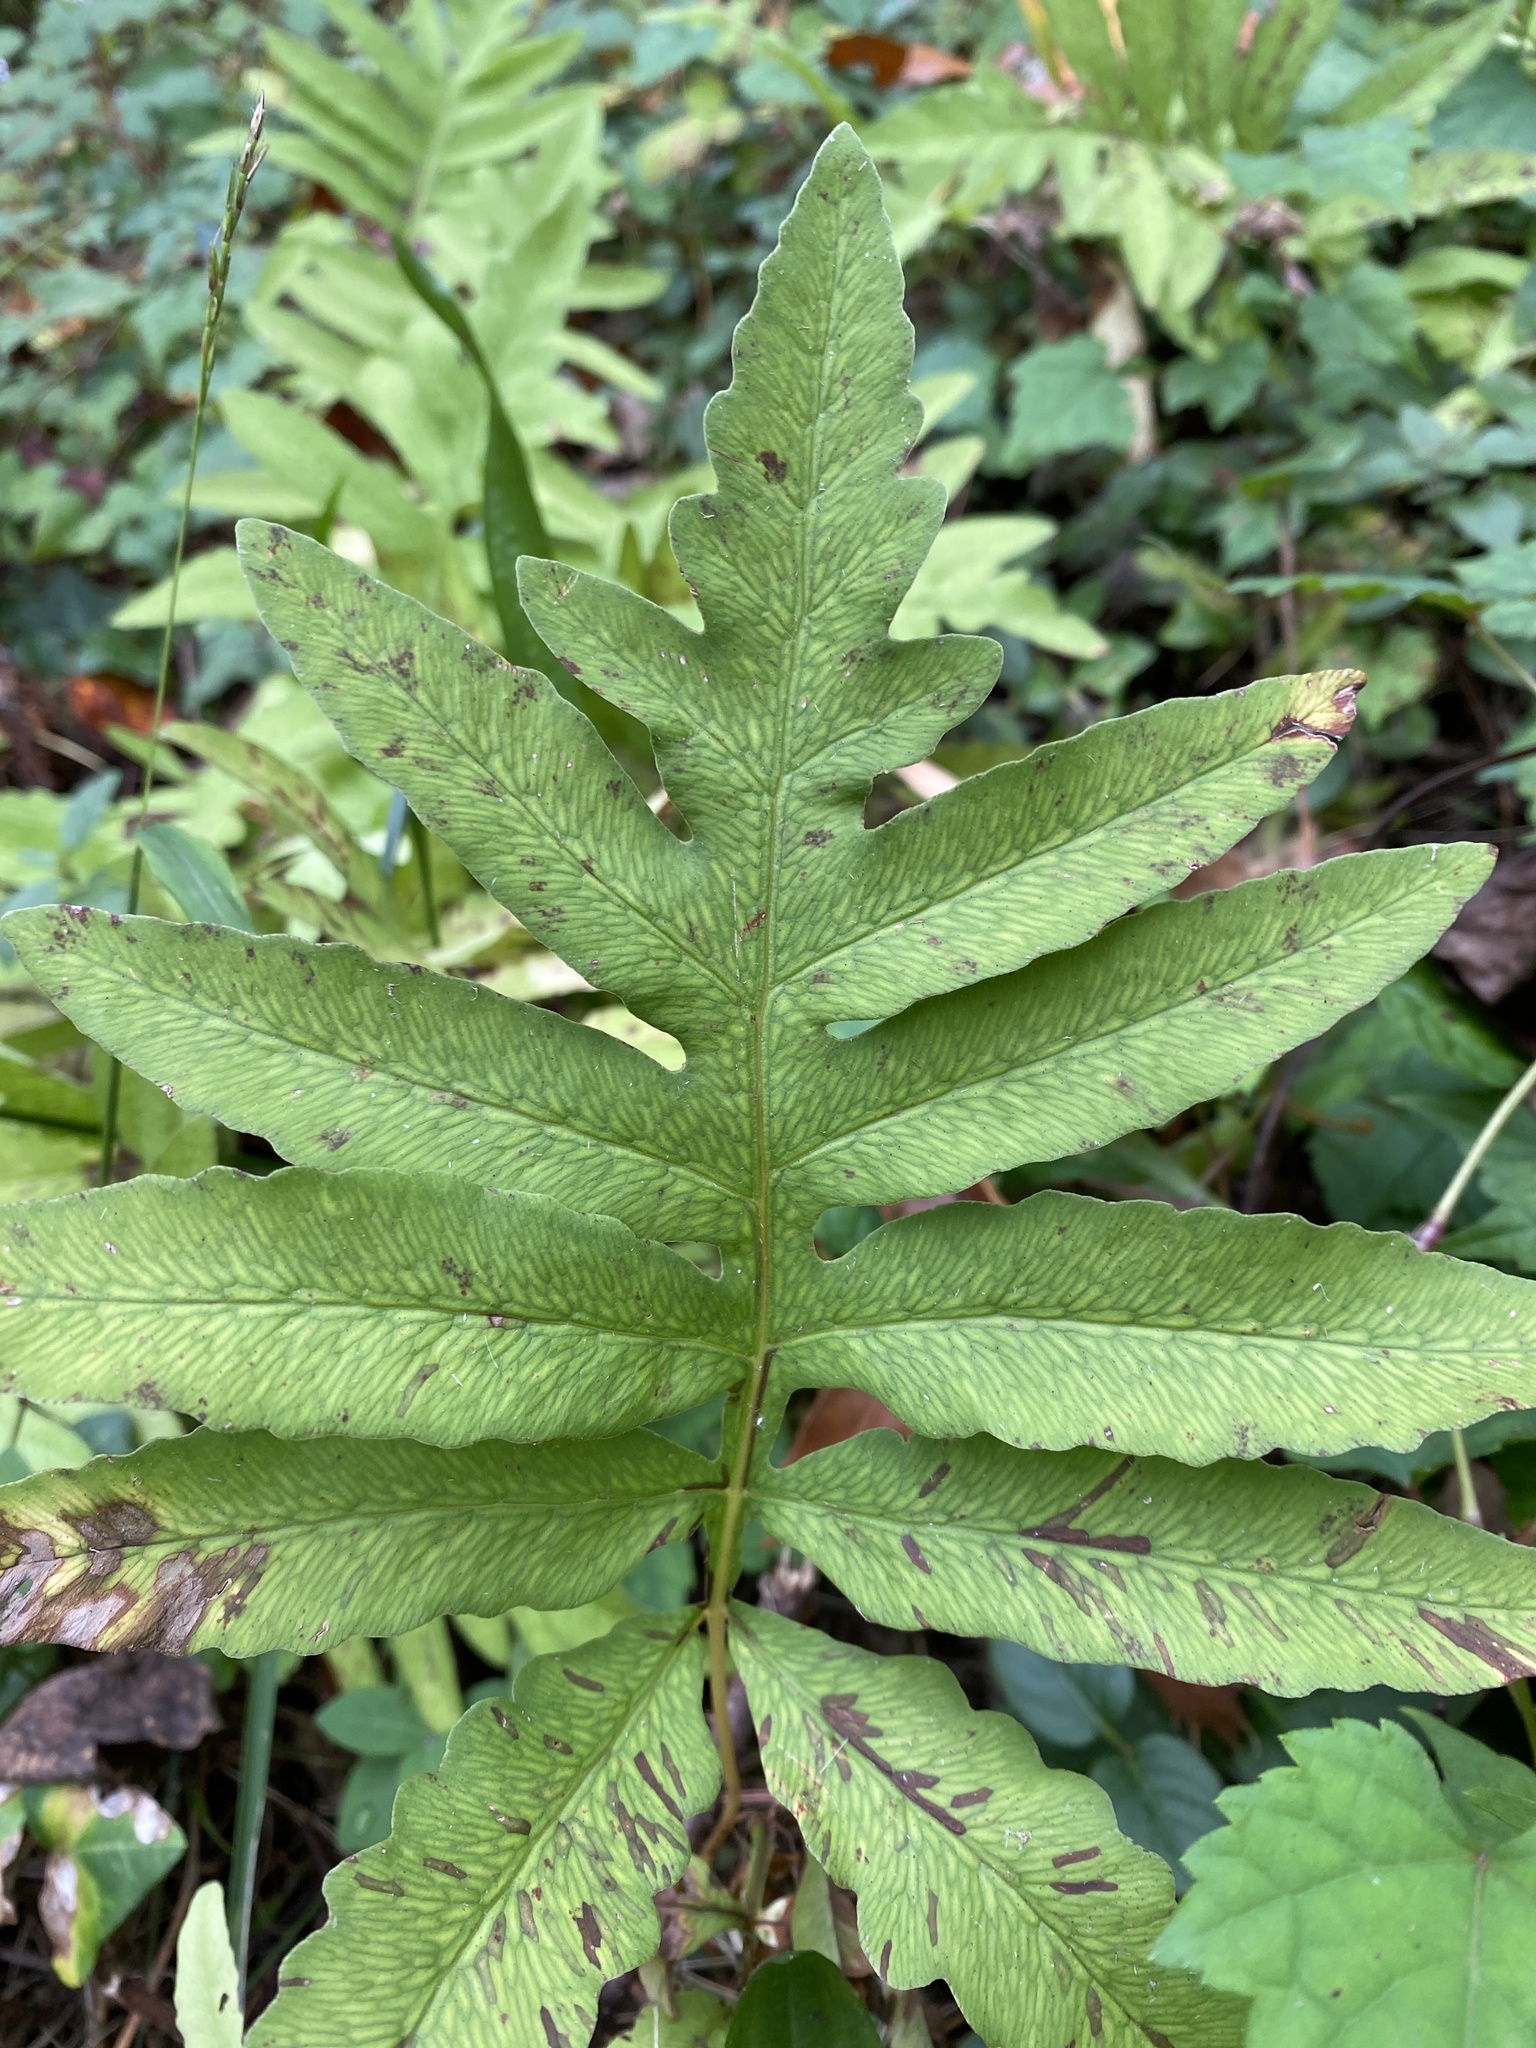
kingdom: Plantae
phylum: Tracheophyta
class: Polypodiopsida
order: Polypodiales
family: Onocleaceae
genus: Onoclea
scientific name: Onoclea sensibilis
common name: Sensitive fern
